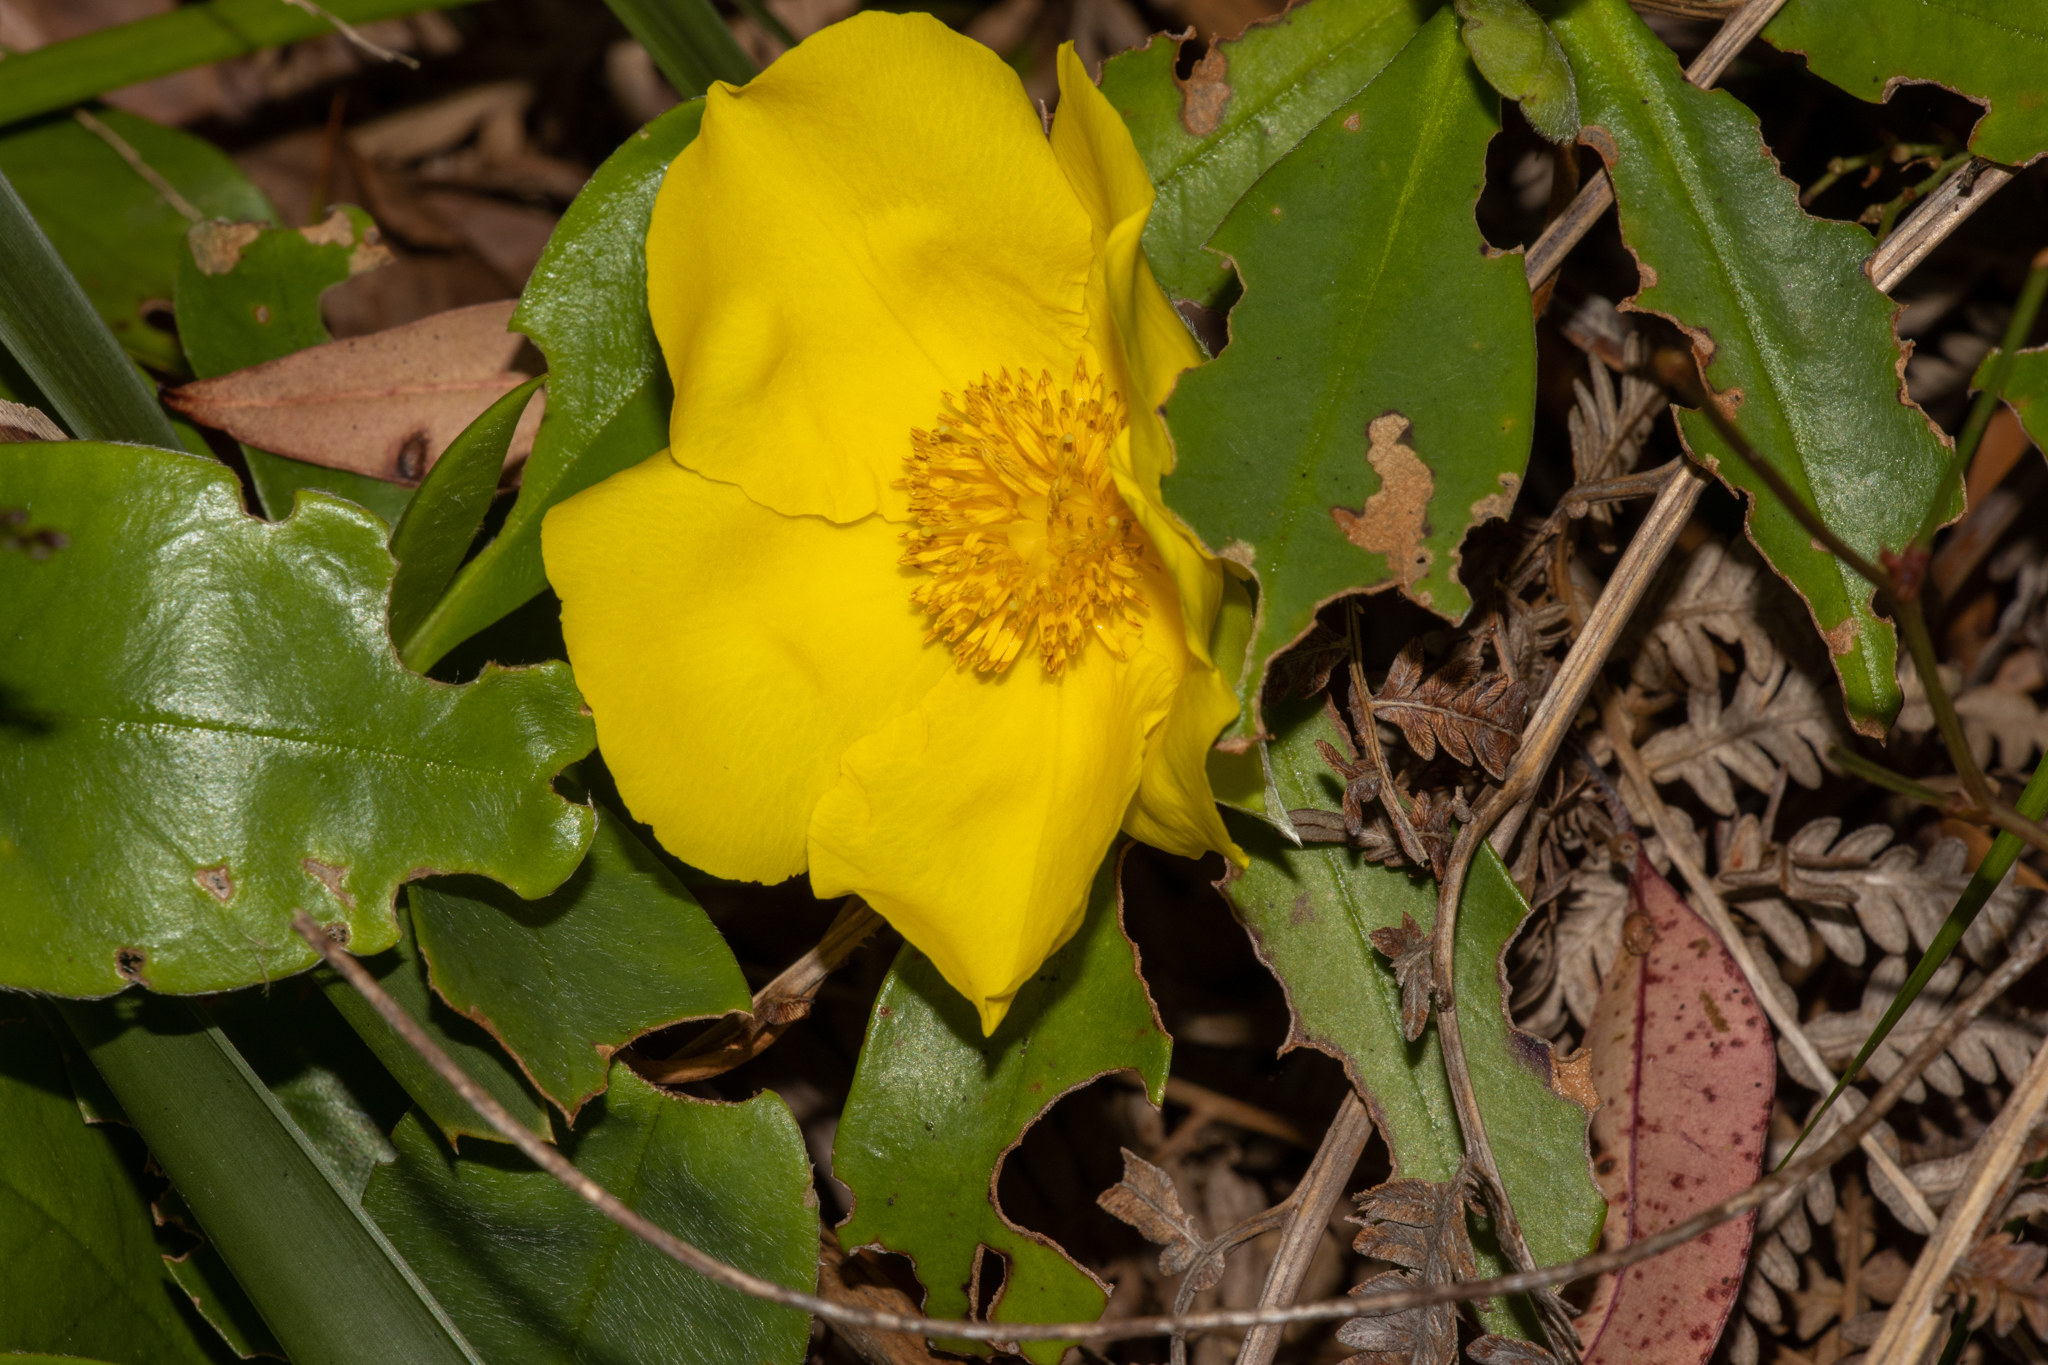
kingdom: Plantae
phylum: Tracheophyta
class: Magnoliopsida
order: Dilleniales
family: Dilleniaceae
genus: Hibbertia
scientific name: Hibbertia scandens
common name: Climbing guinea-flower
